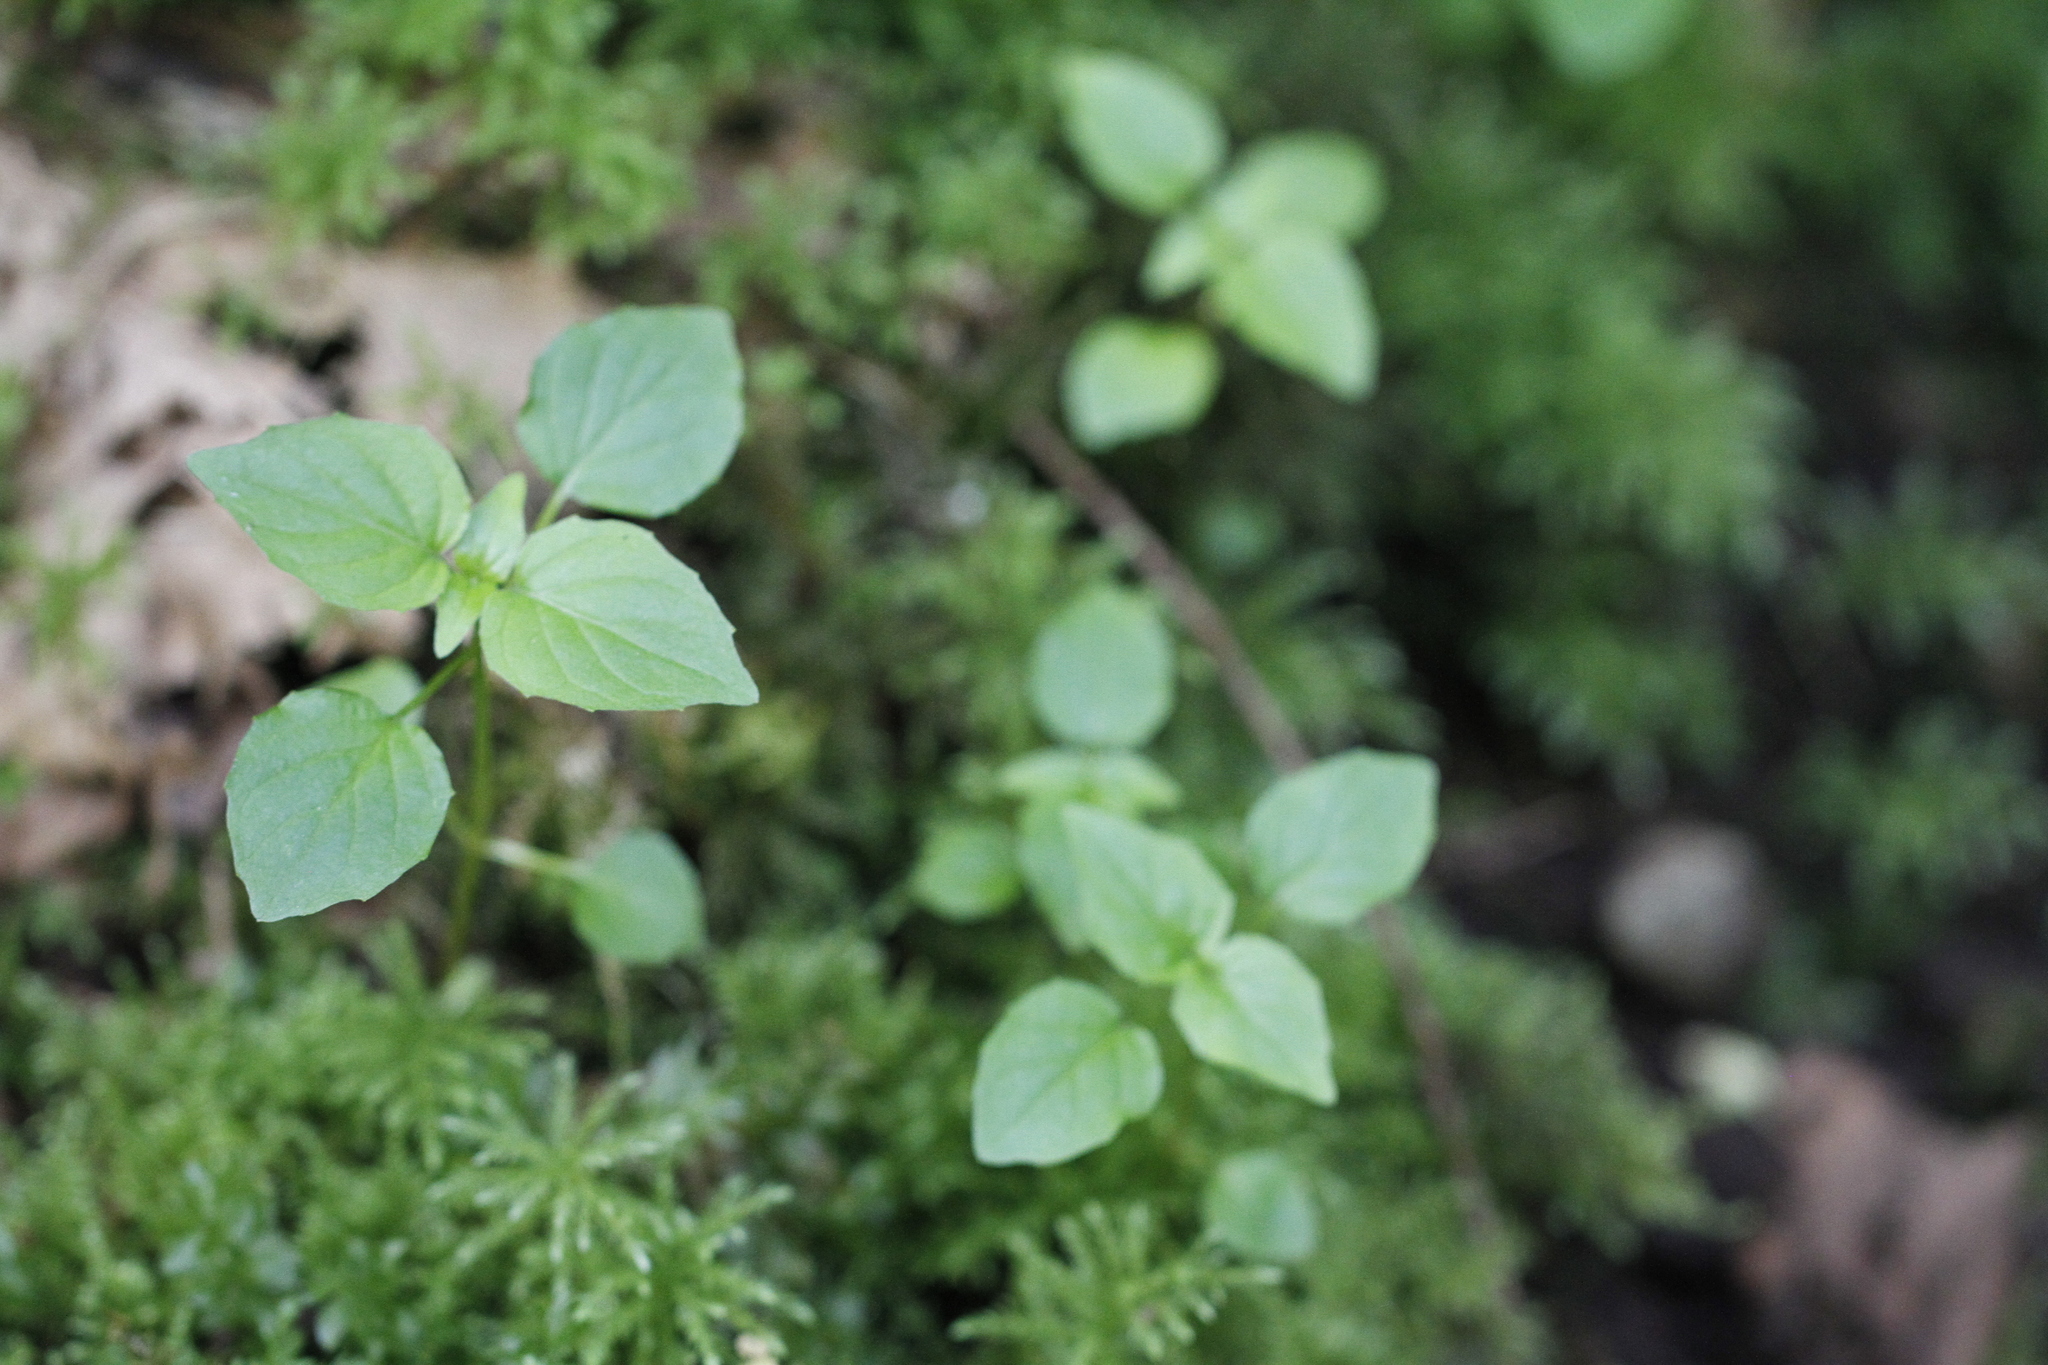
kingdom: Plantae
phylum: Tracheophyta
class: Magnoliopsida
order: Myrtales
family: Onagraceae
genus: Circaea
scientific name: Circaea alpina
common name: Alpine enchanter's-nightshade
